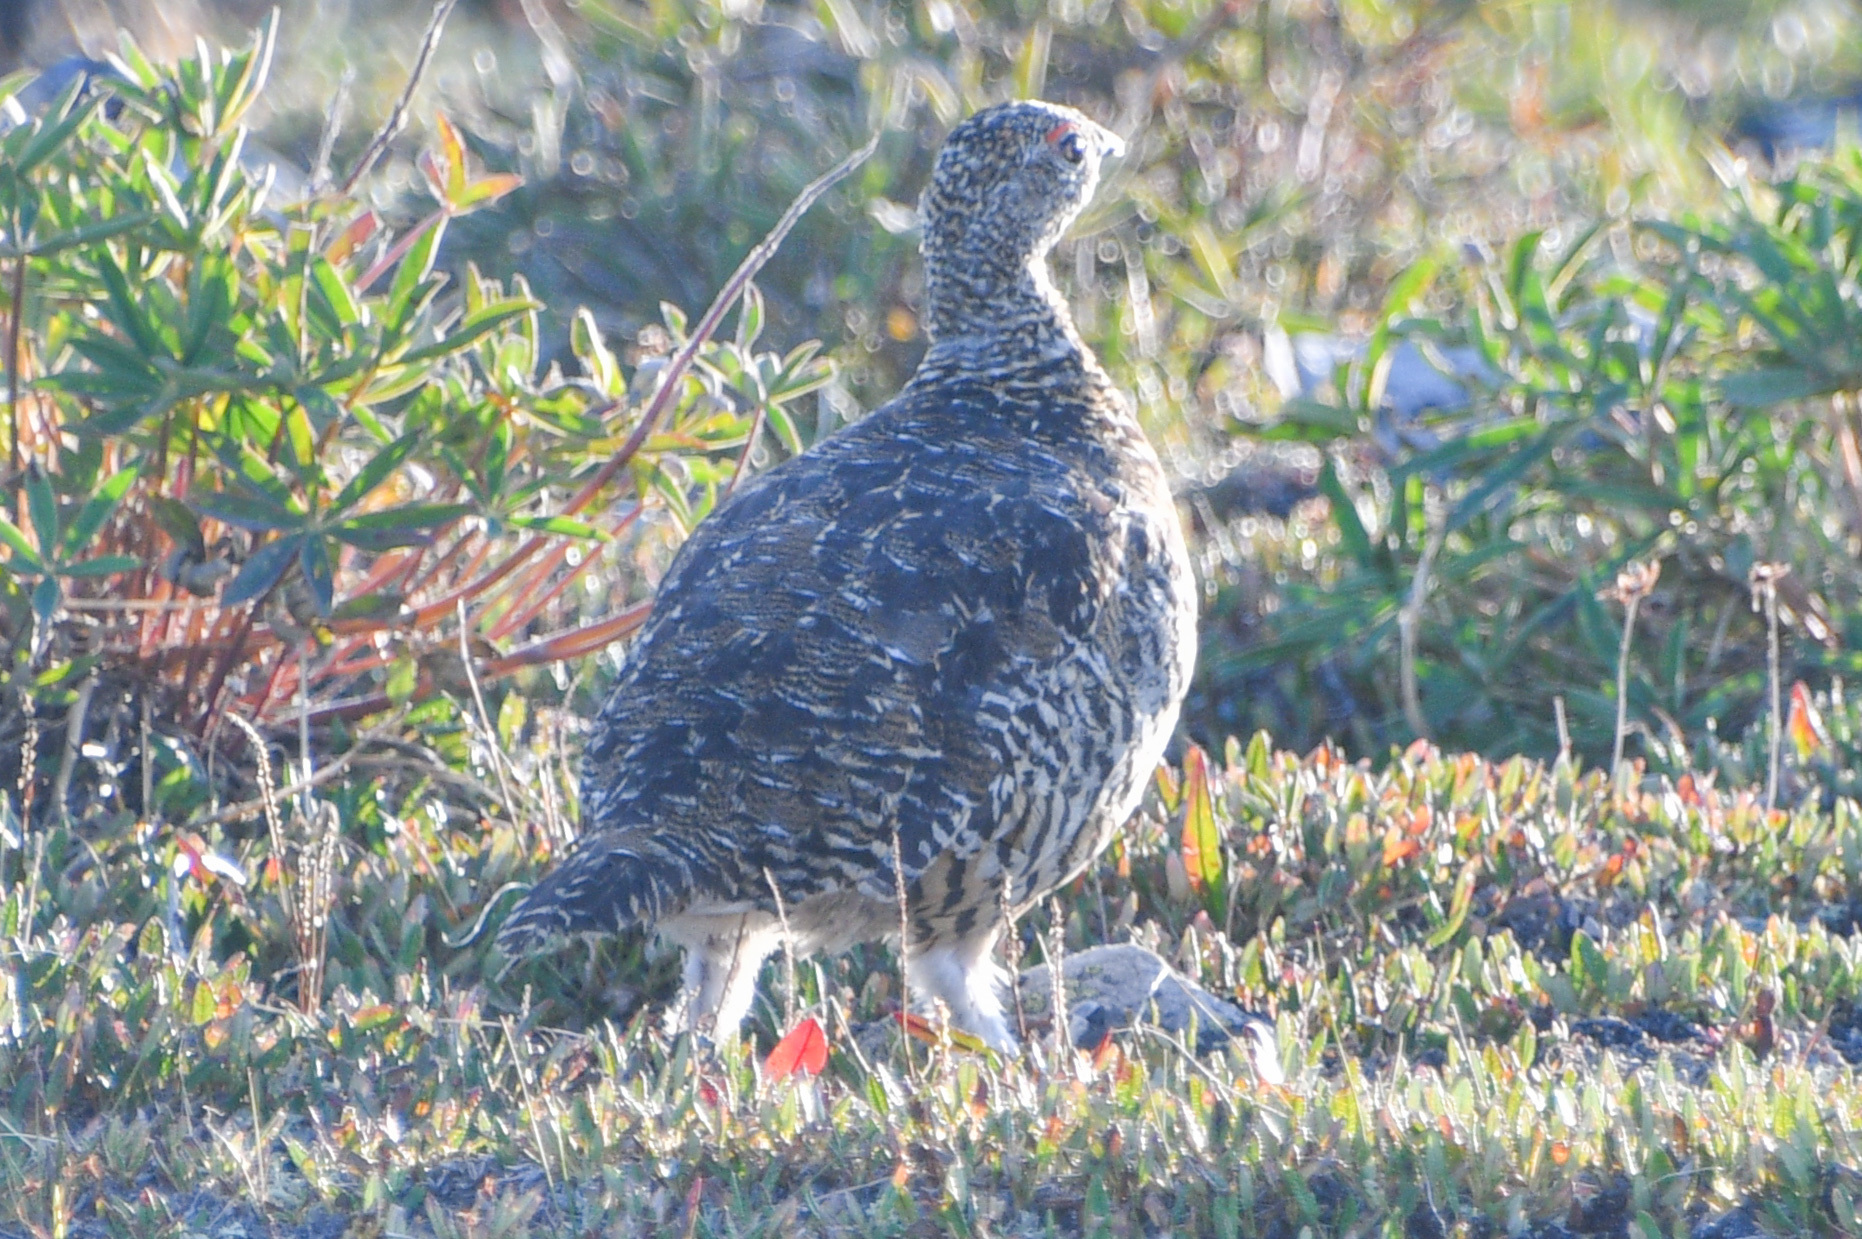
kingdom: Animalia
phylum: Chordata
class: Aves
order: Galliformes
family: Phasianidae
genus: Lagopus
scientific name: Lagopus muta
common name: Rock ptarmigan
